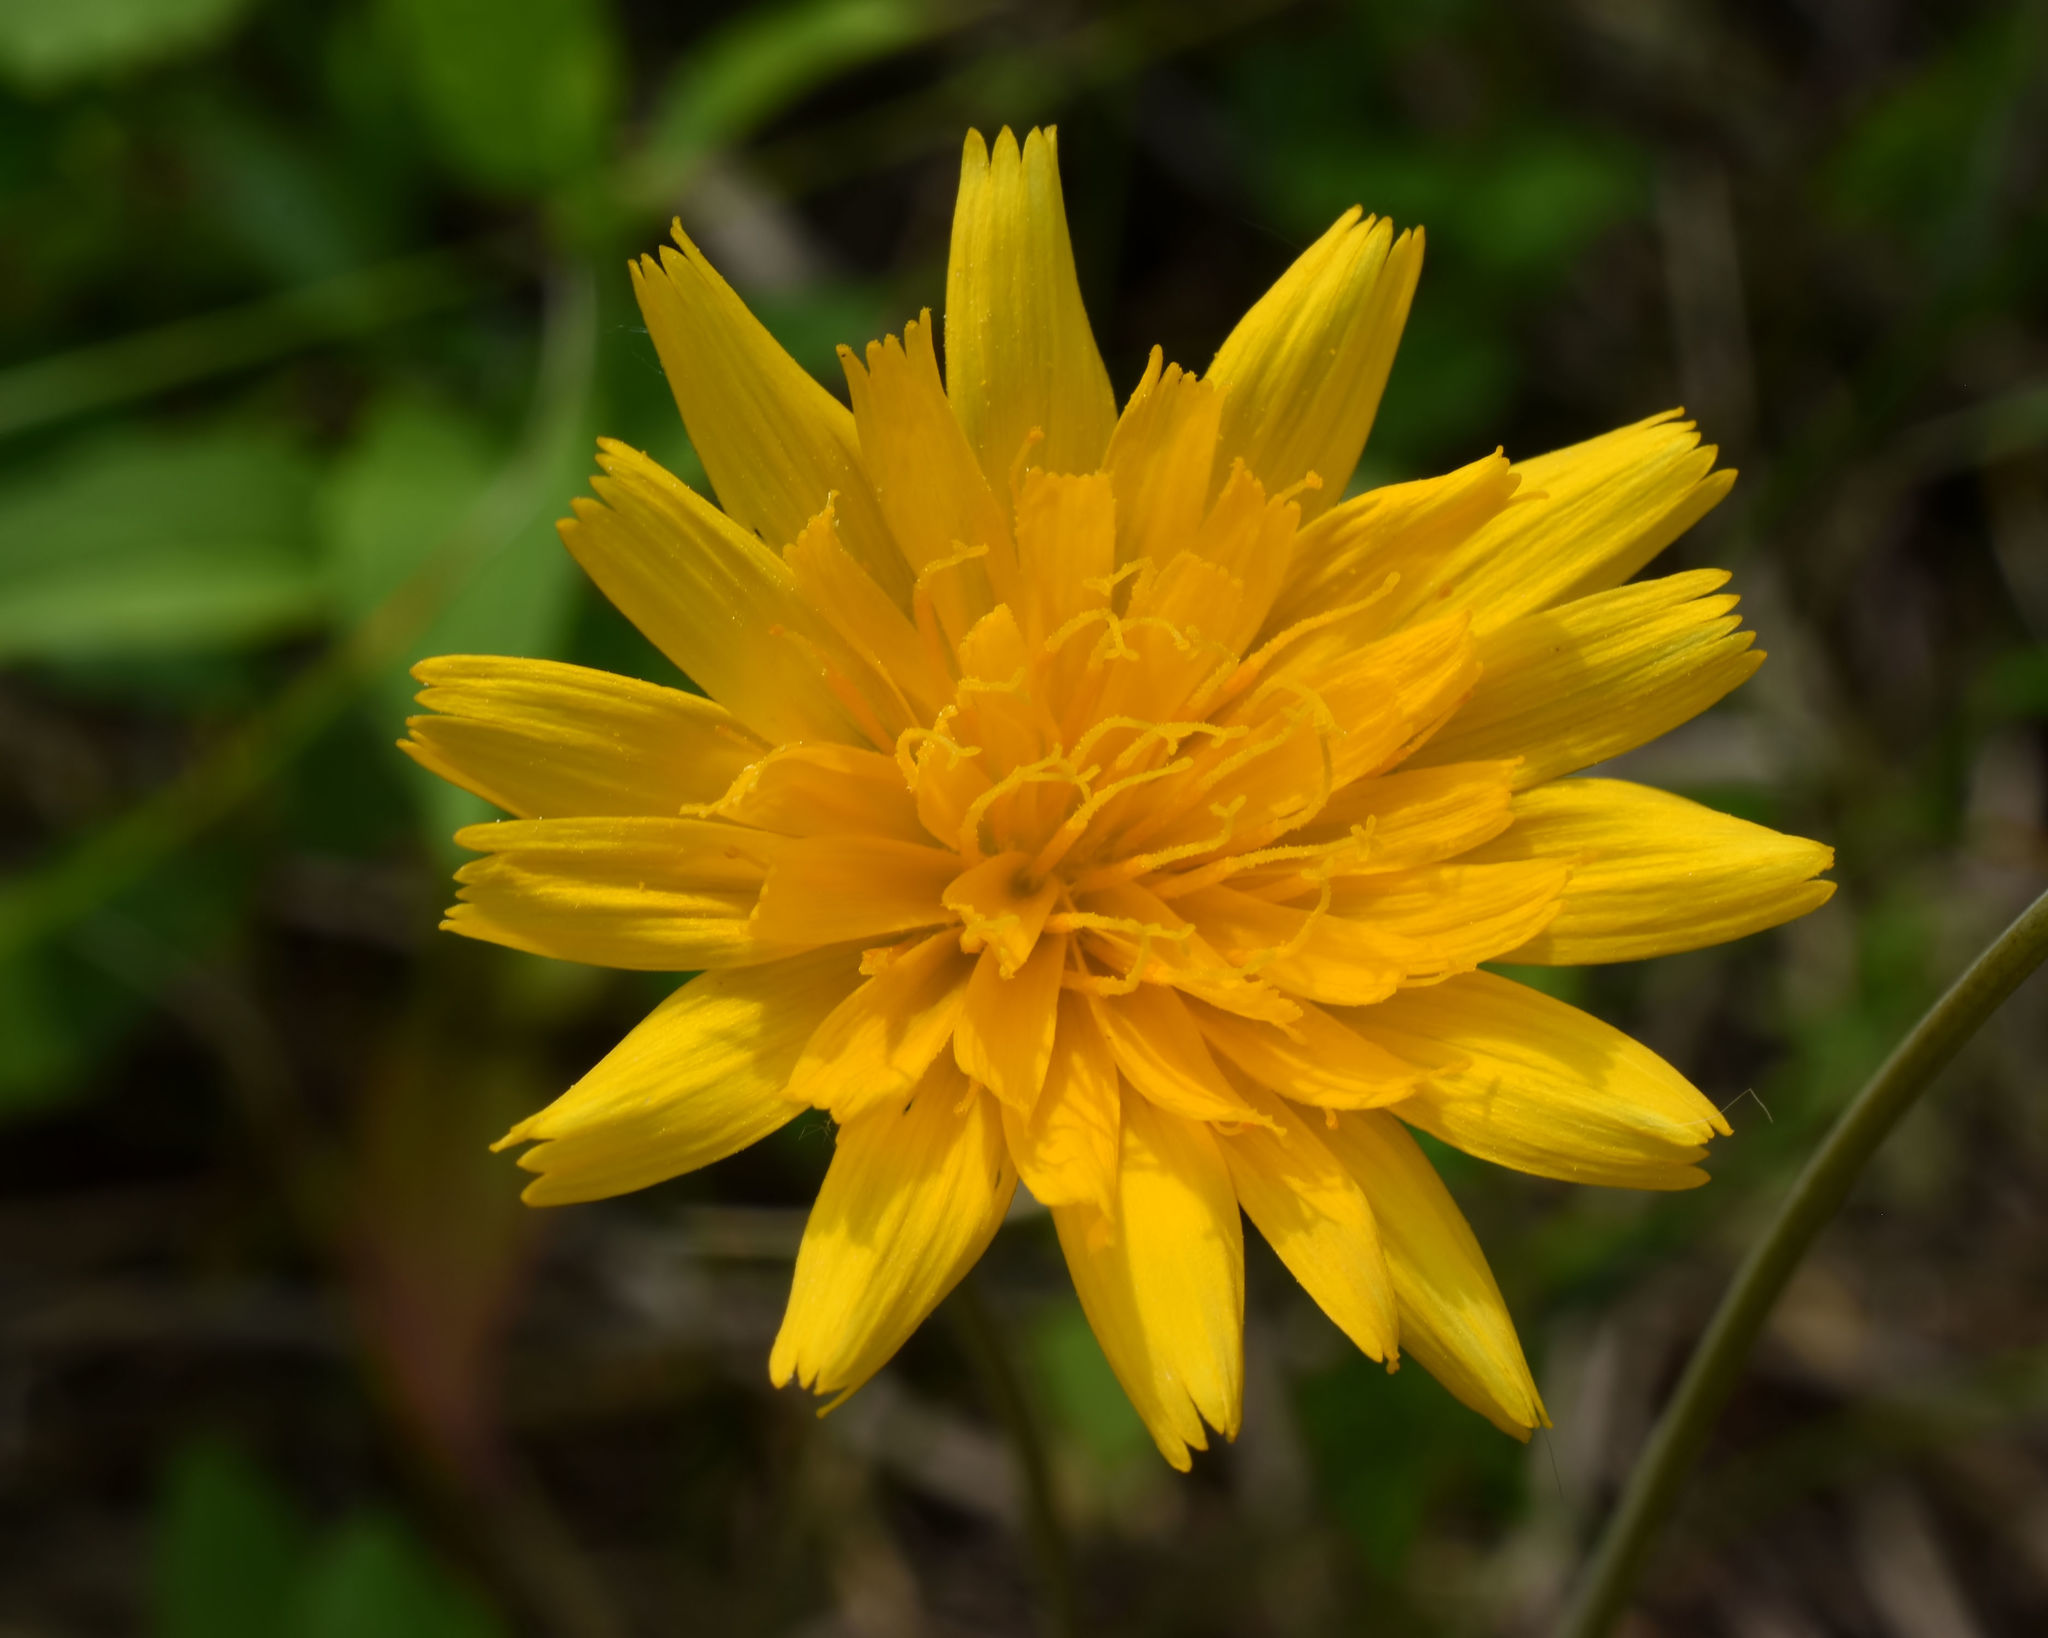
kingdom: Plantae
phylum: Tracheophyta
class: Magnoliopsida
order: Asterales
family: Asteraceae
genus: Krigia
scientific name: Krigia biflora
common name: Orange dwarf-dandelion
